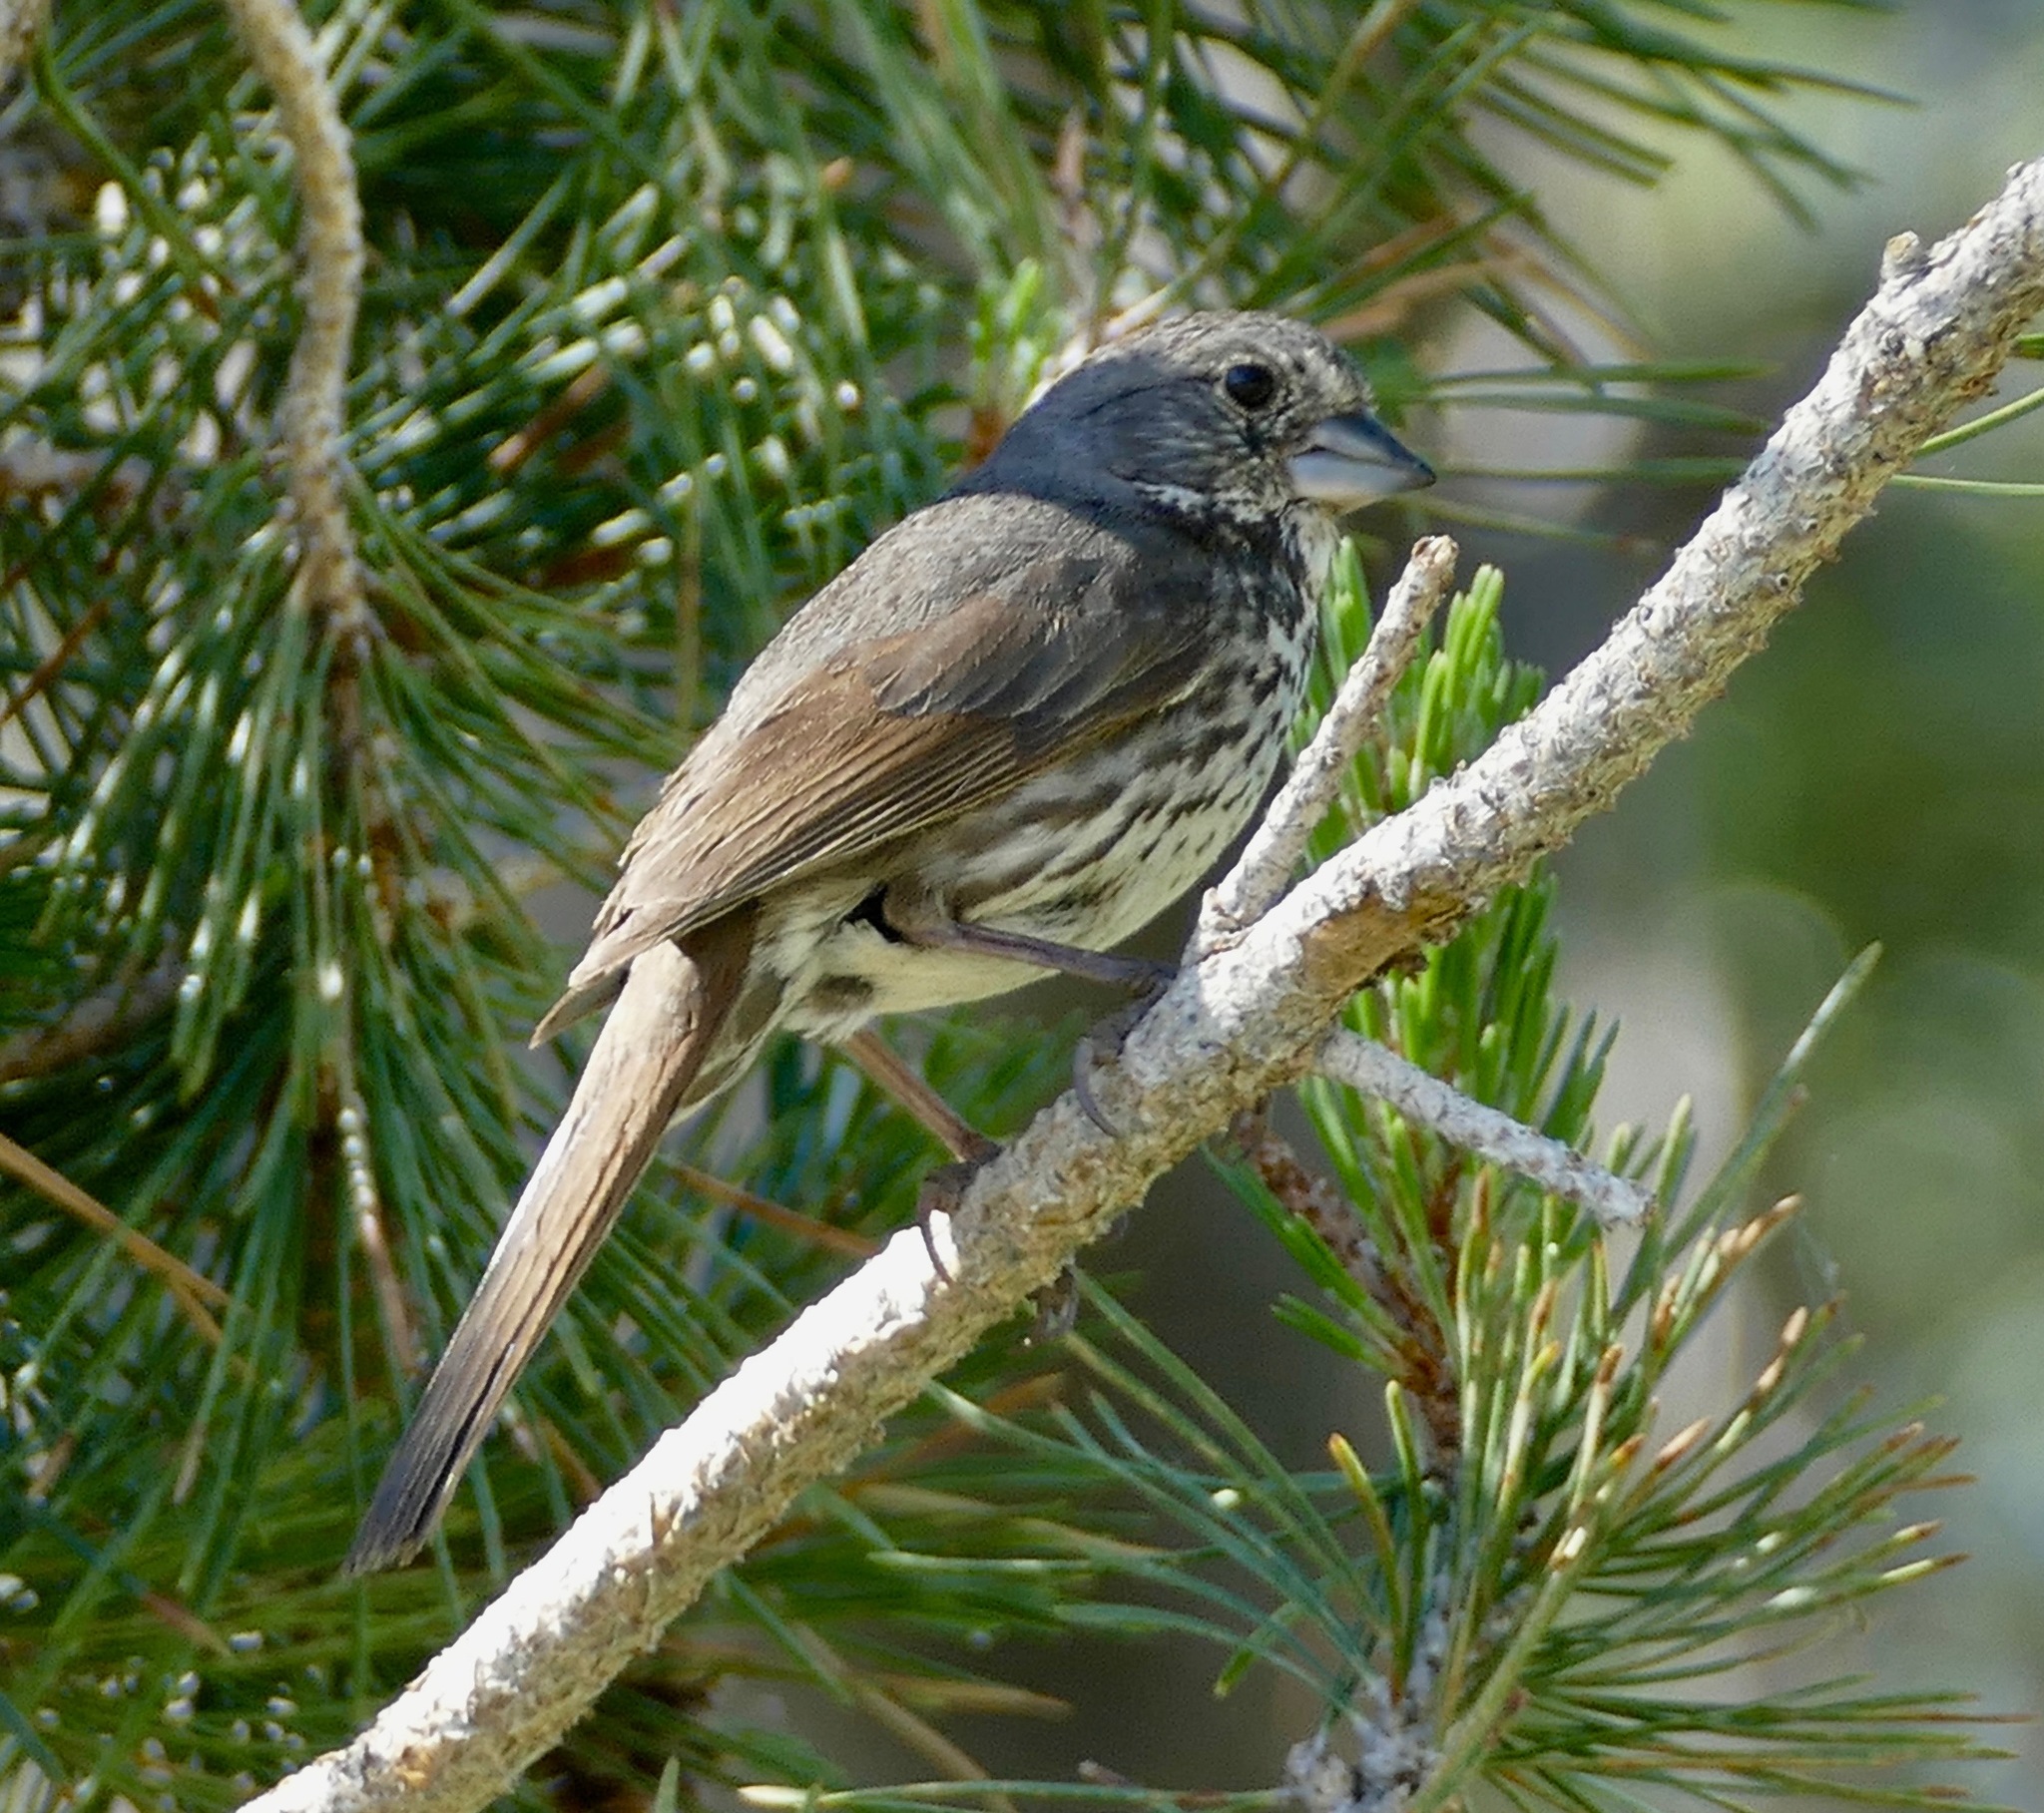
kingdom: Animalia
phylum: Chordata
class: Aves
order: Passeriformes
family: Passerellidae
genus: Passerella
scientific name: Passerella iliaca
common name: Fox sparrow
